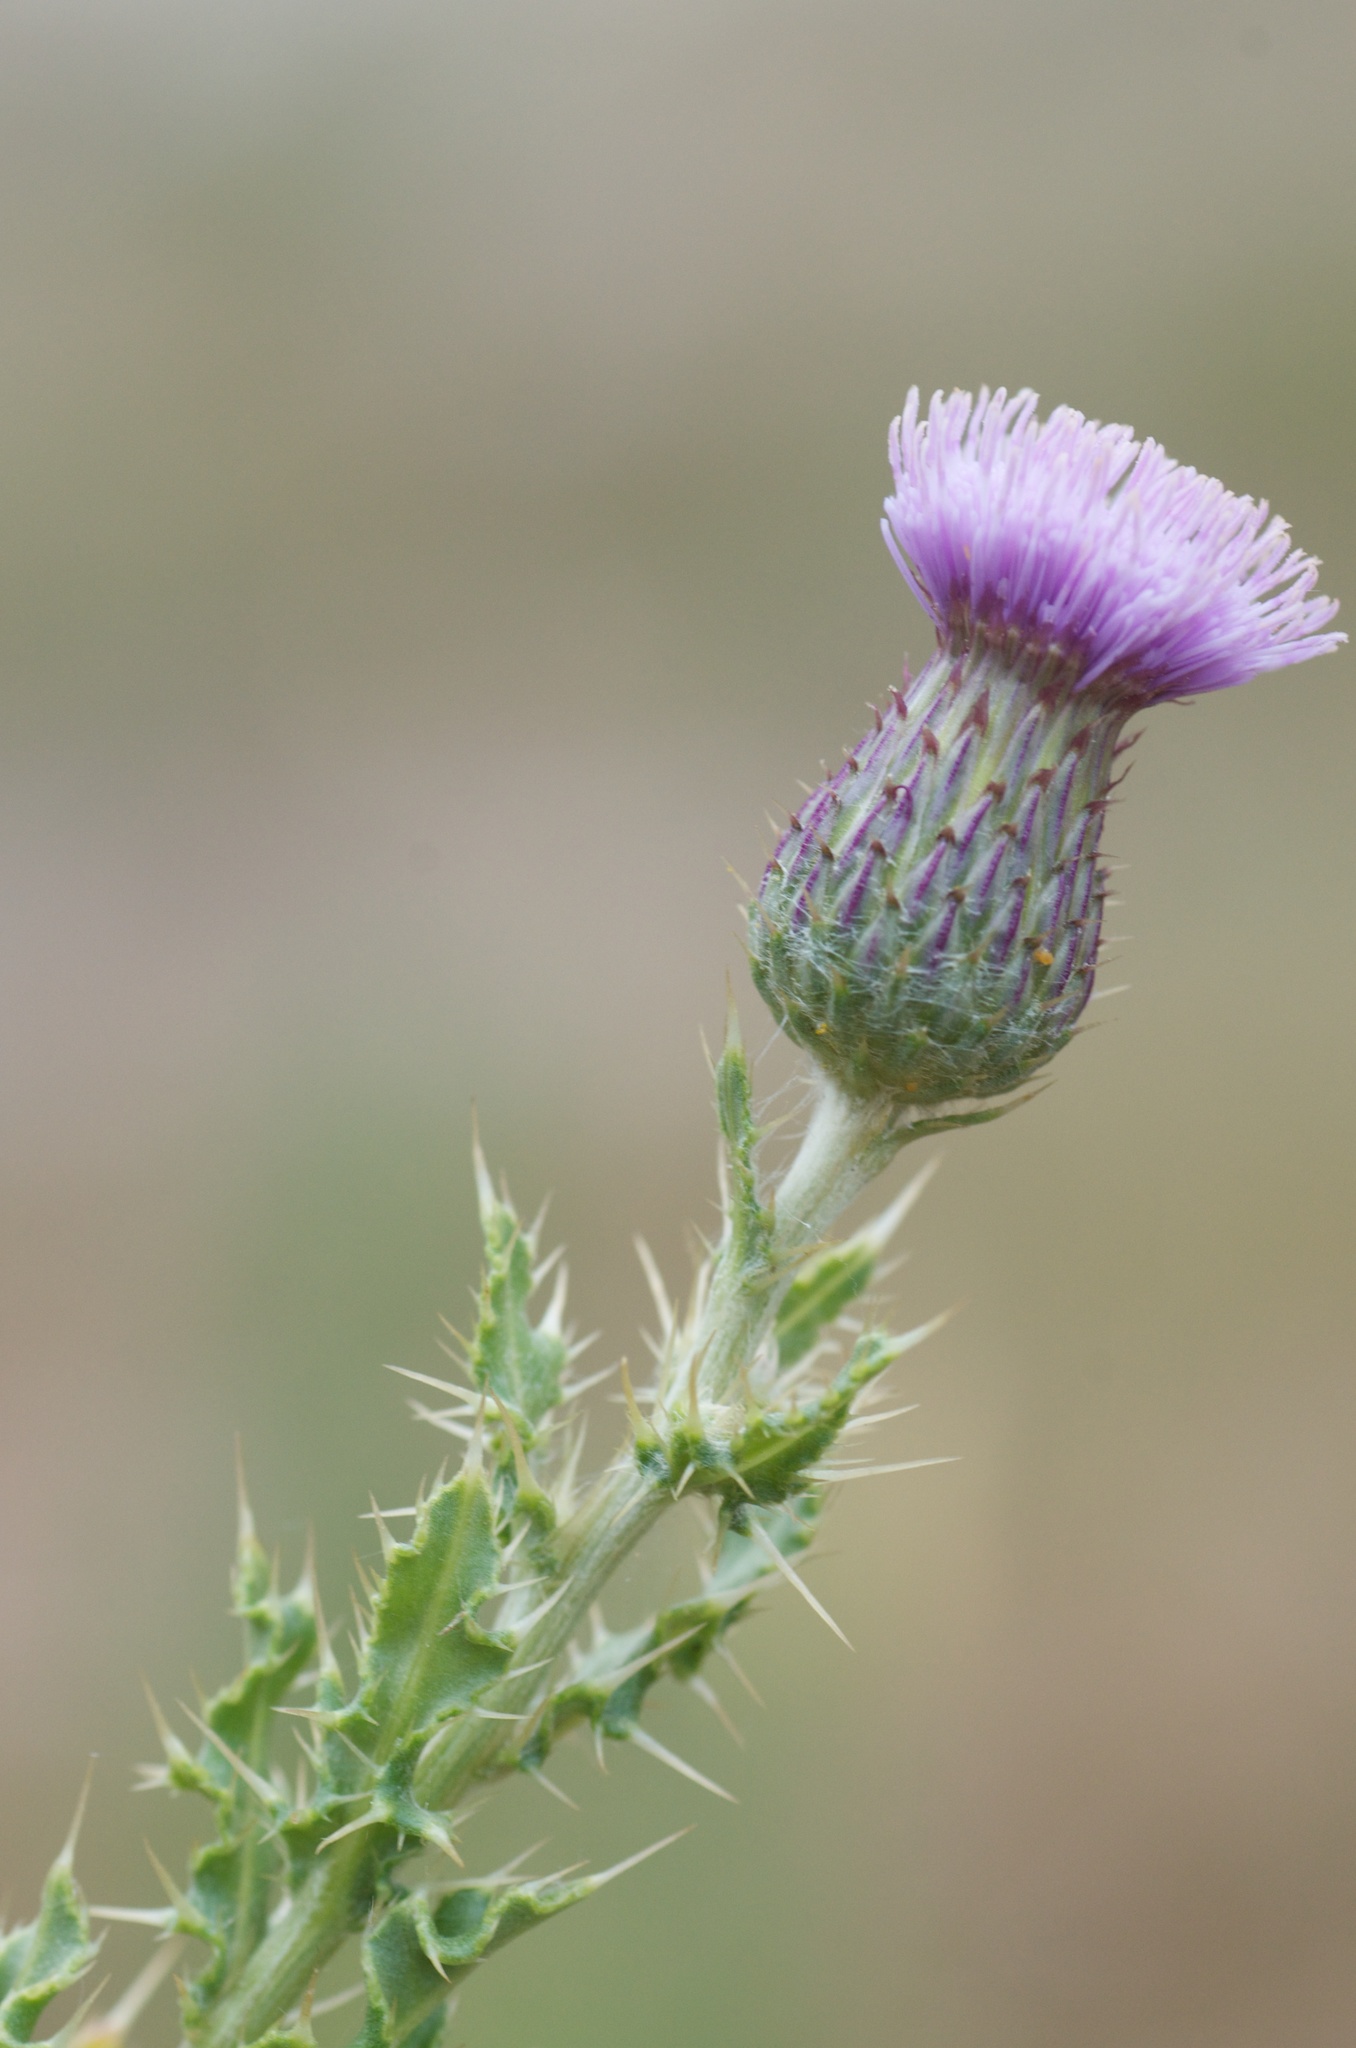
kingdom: Plantae
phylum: Tracheophyta
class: Magnoliopsida
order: Asterales
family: Asteraceae
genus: Cirsium
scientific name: Cirsium arvense
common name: Creeping thistle
